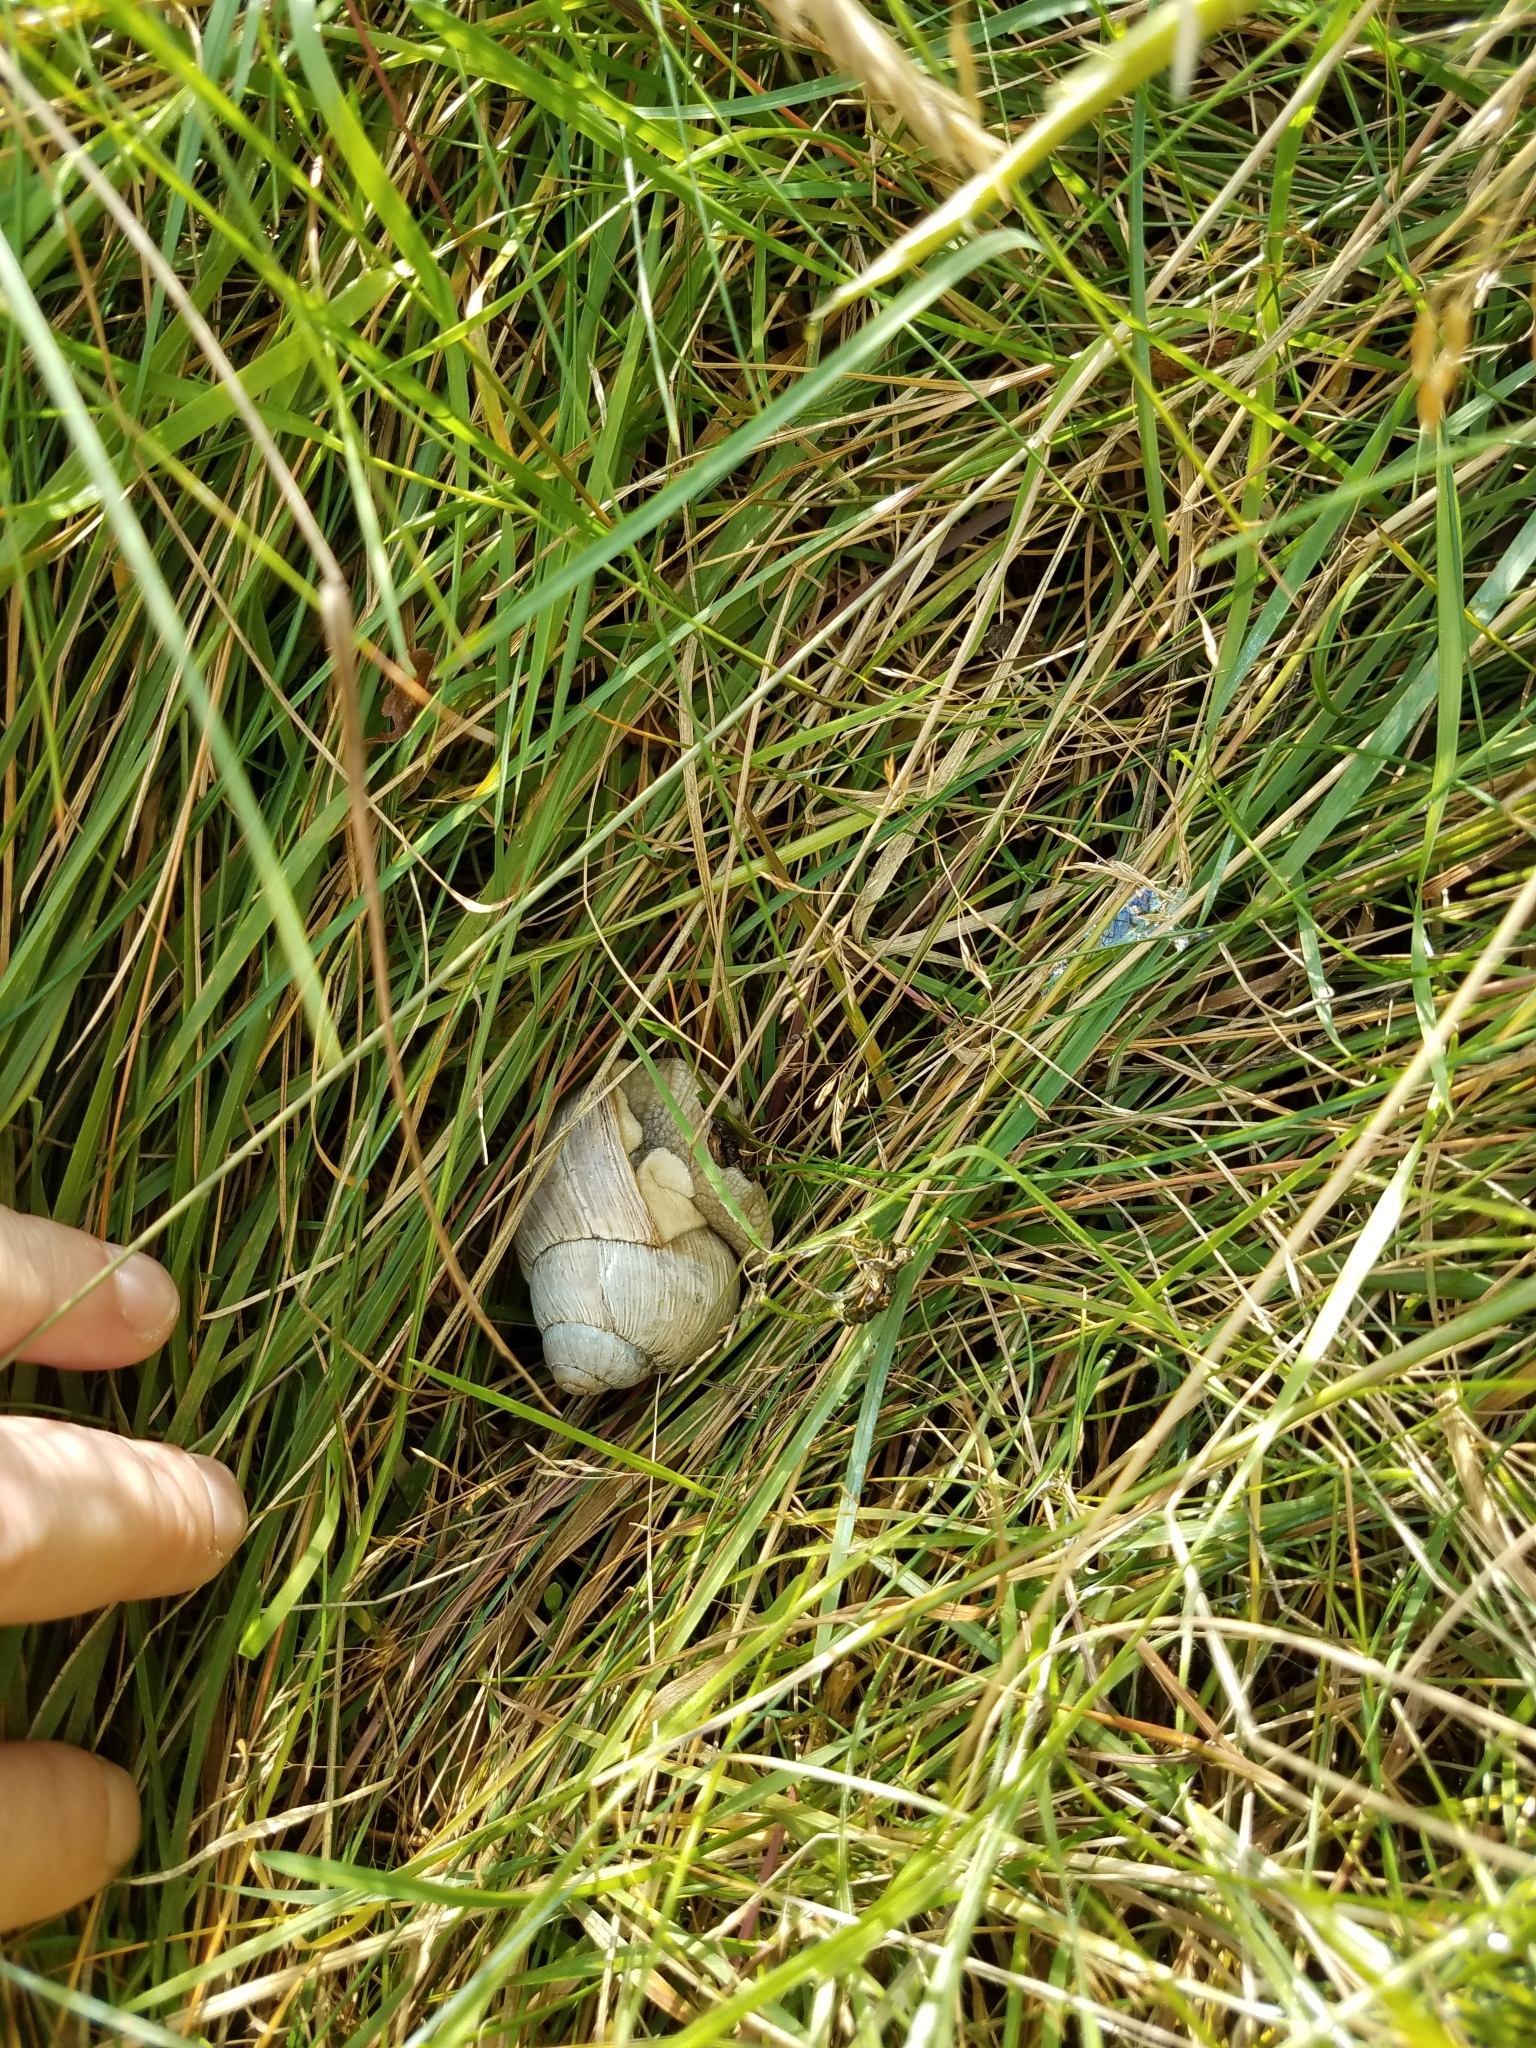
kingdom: Animalia
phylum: Mollusca
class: Gastropoda
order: Stylommatophora
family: Helicidae
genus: Helix
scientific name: Helix pomatia
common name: Roman snail
